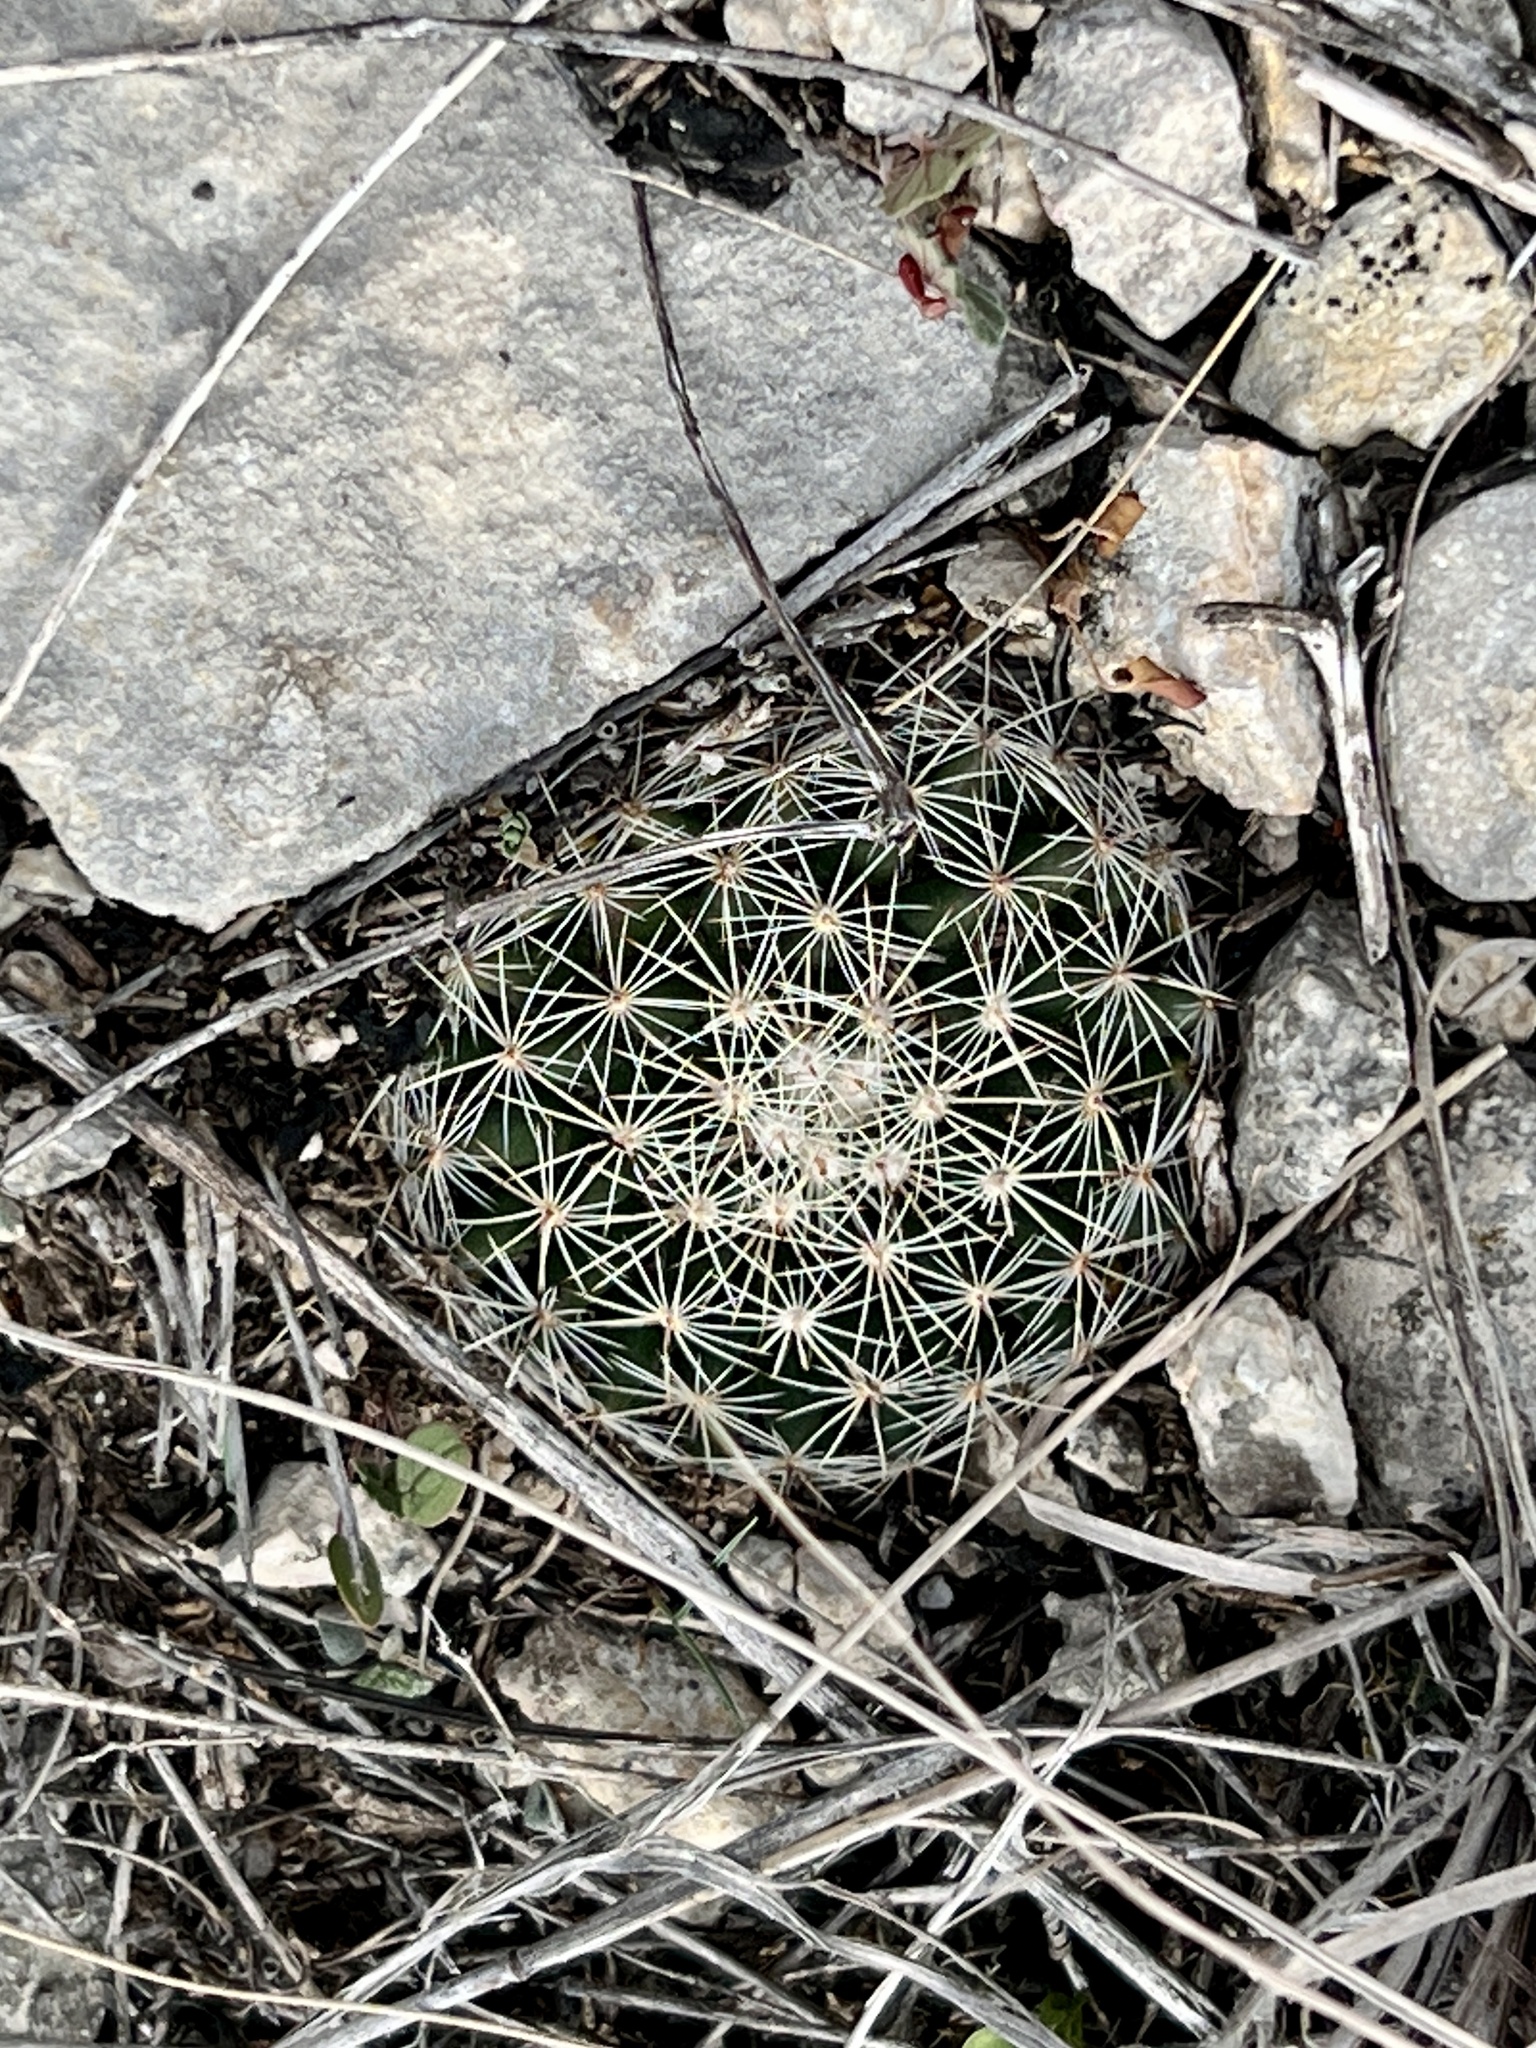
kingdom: Plantae
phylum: Tracheophyta
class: Magnoliopsida
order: Caryophyllales
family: Cactaceae
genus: Mammillaria
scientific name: Mammillaria heyderi
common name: Little nipple cactus
